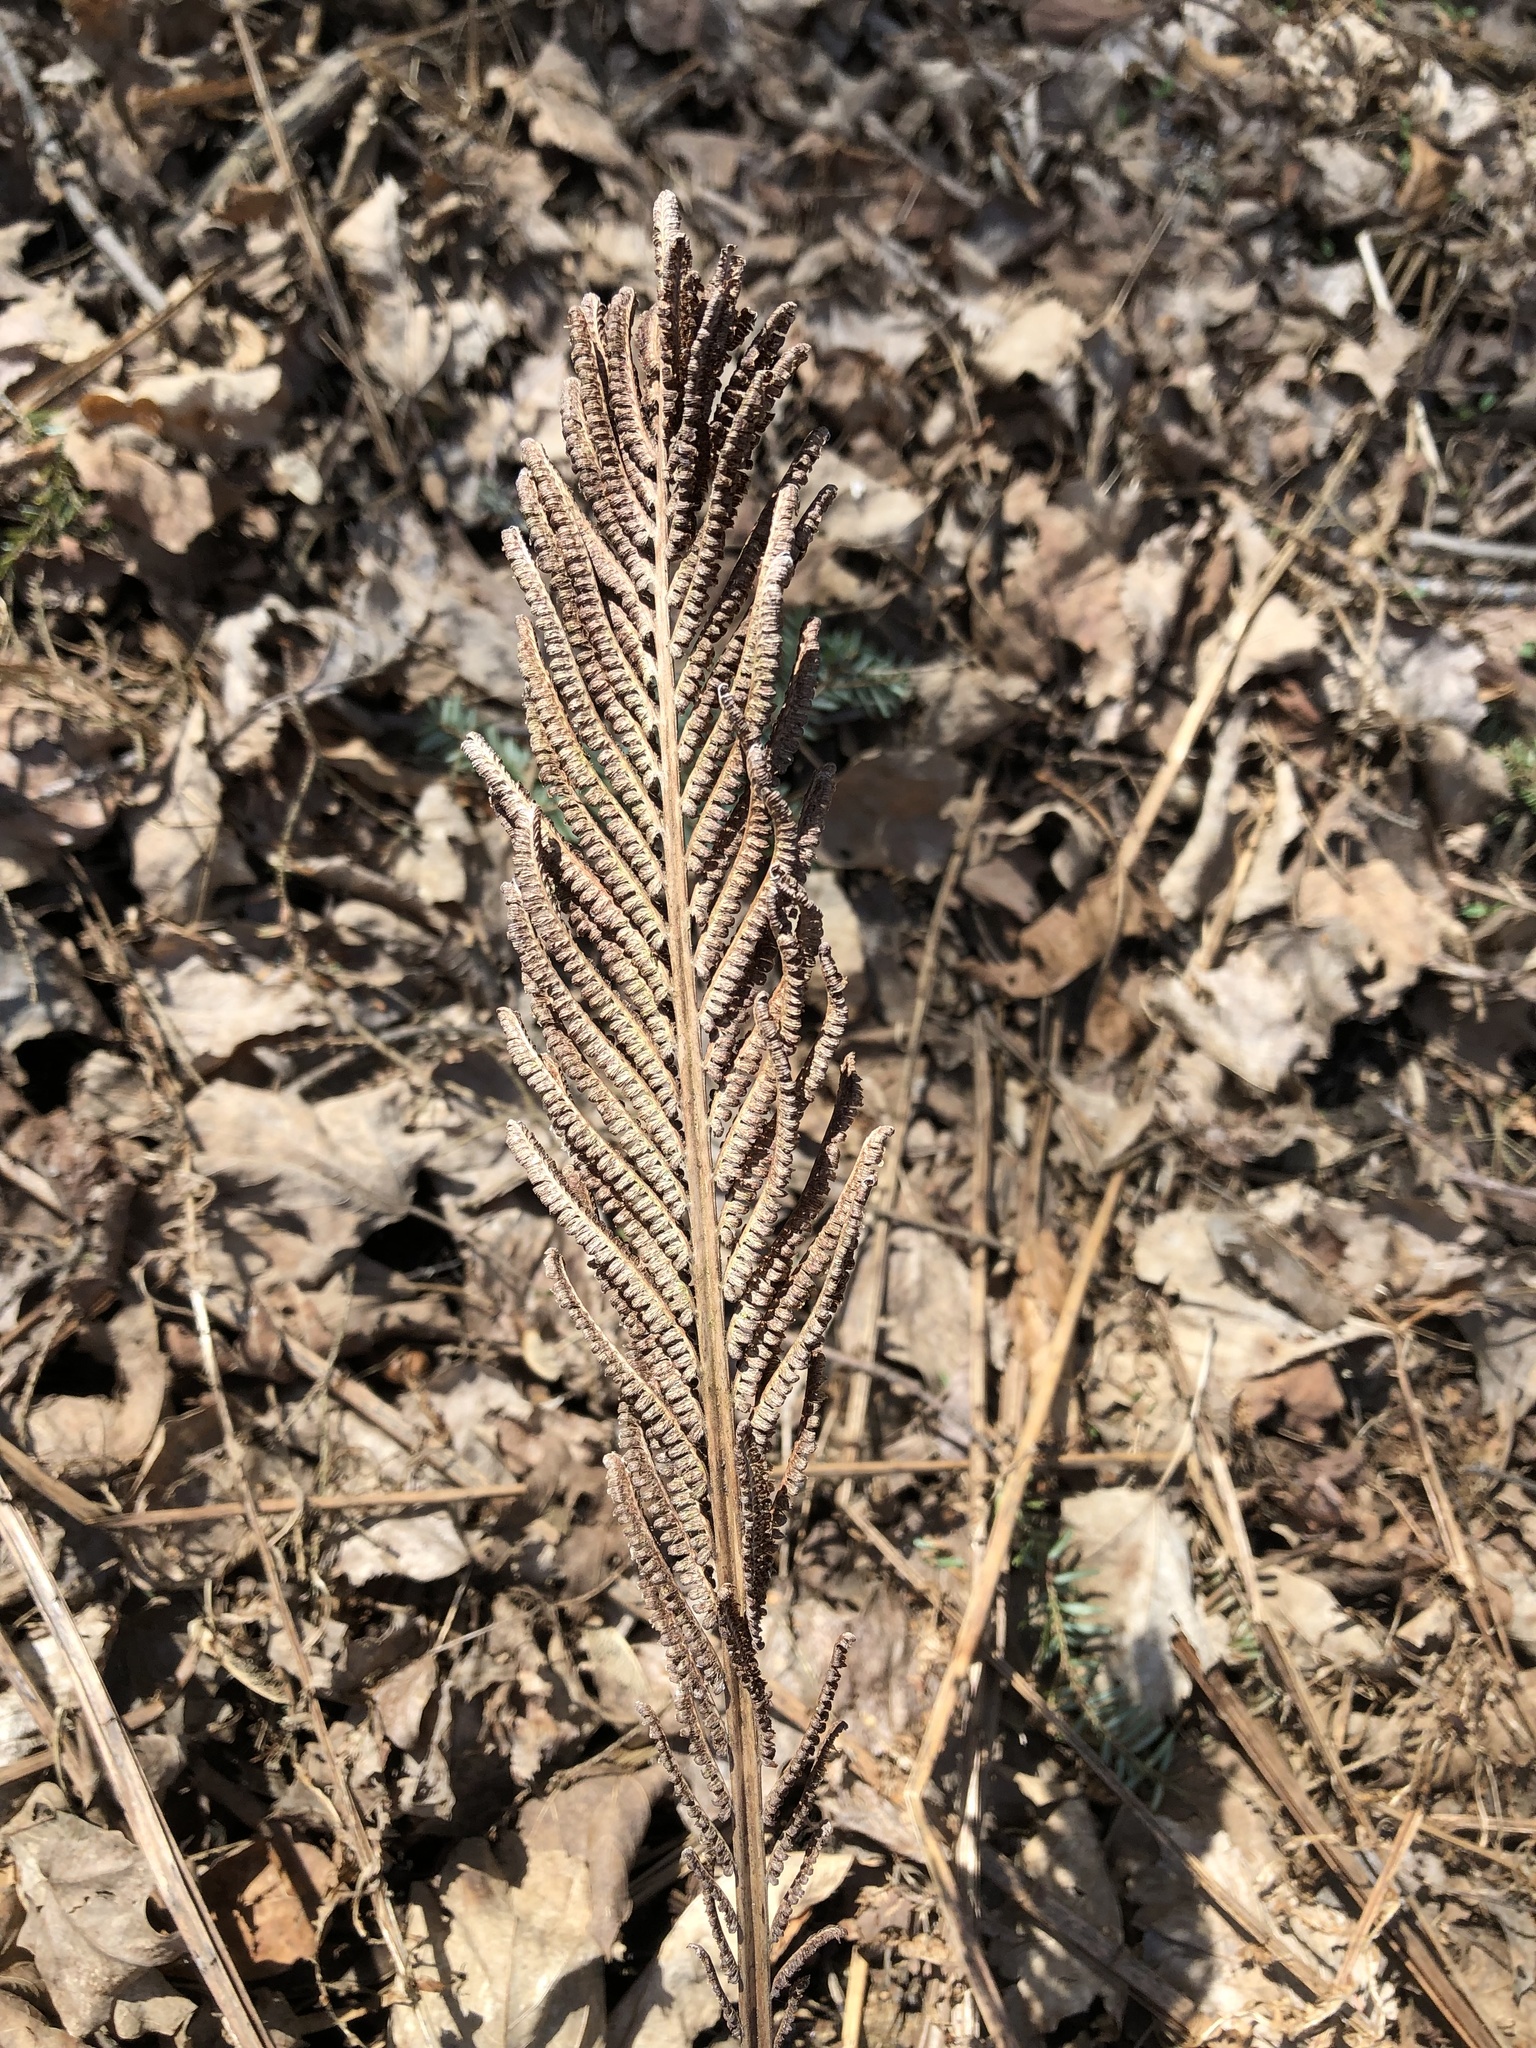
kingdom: Plantae
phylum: Tracheophyta
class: Polypodiopsida
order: Polypodiales
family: Onocleaceae
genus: Matteuccia
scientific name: Matteuccia struthiopteris
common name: Ostrich fern
